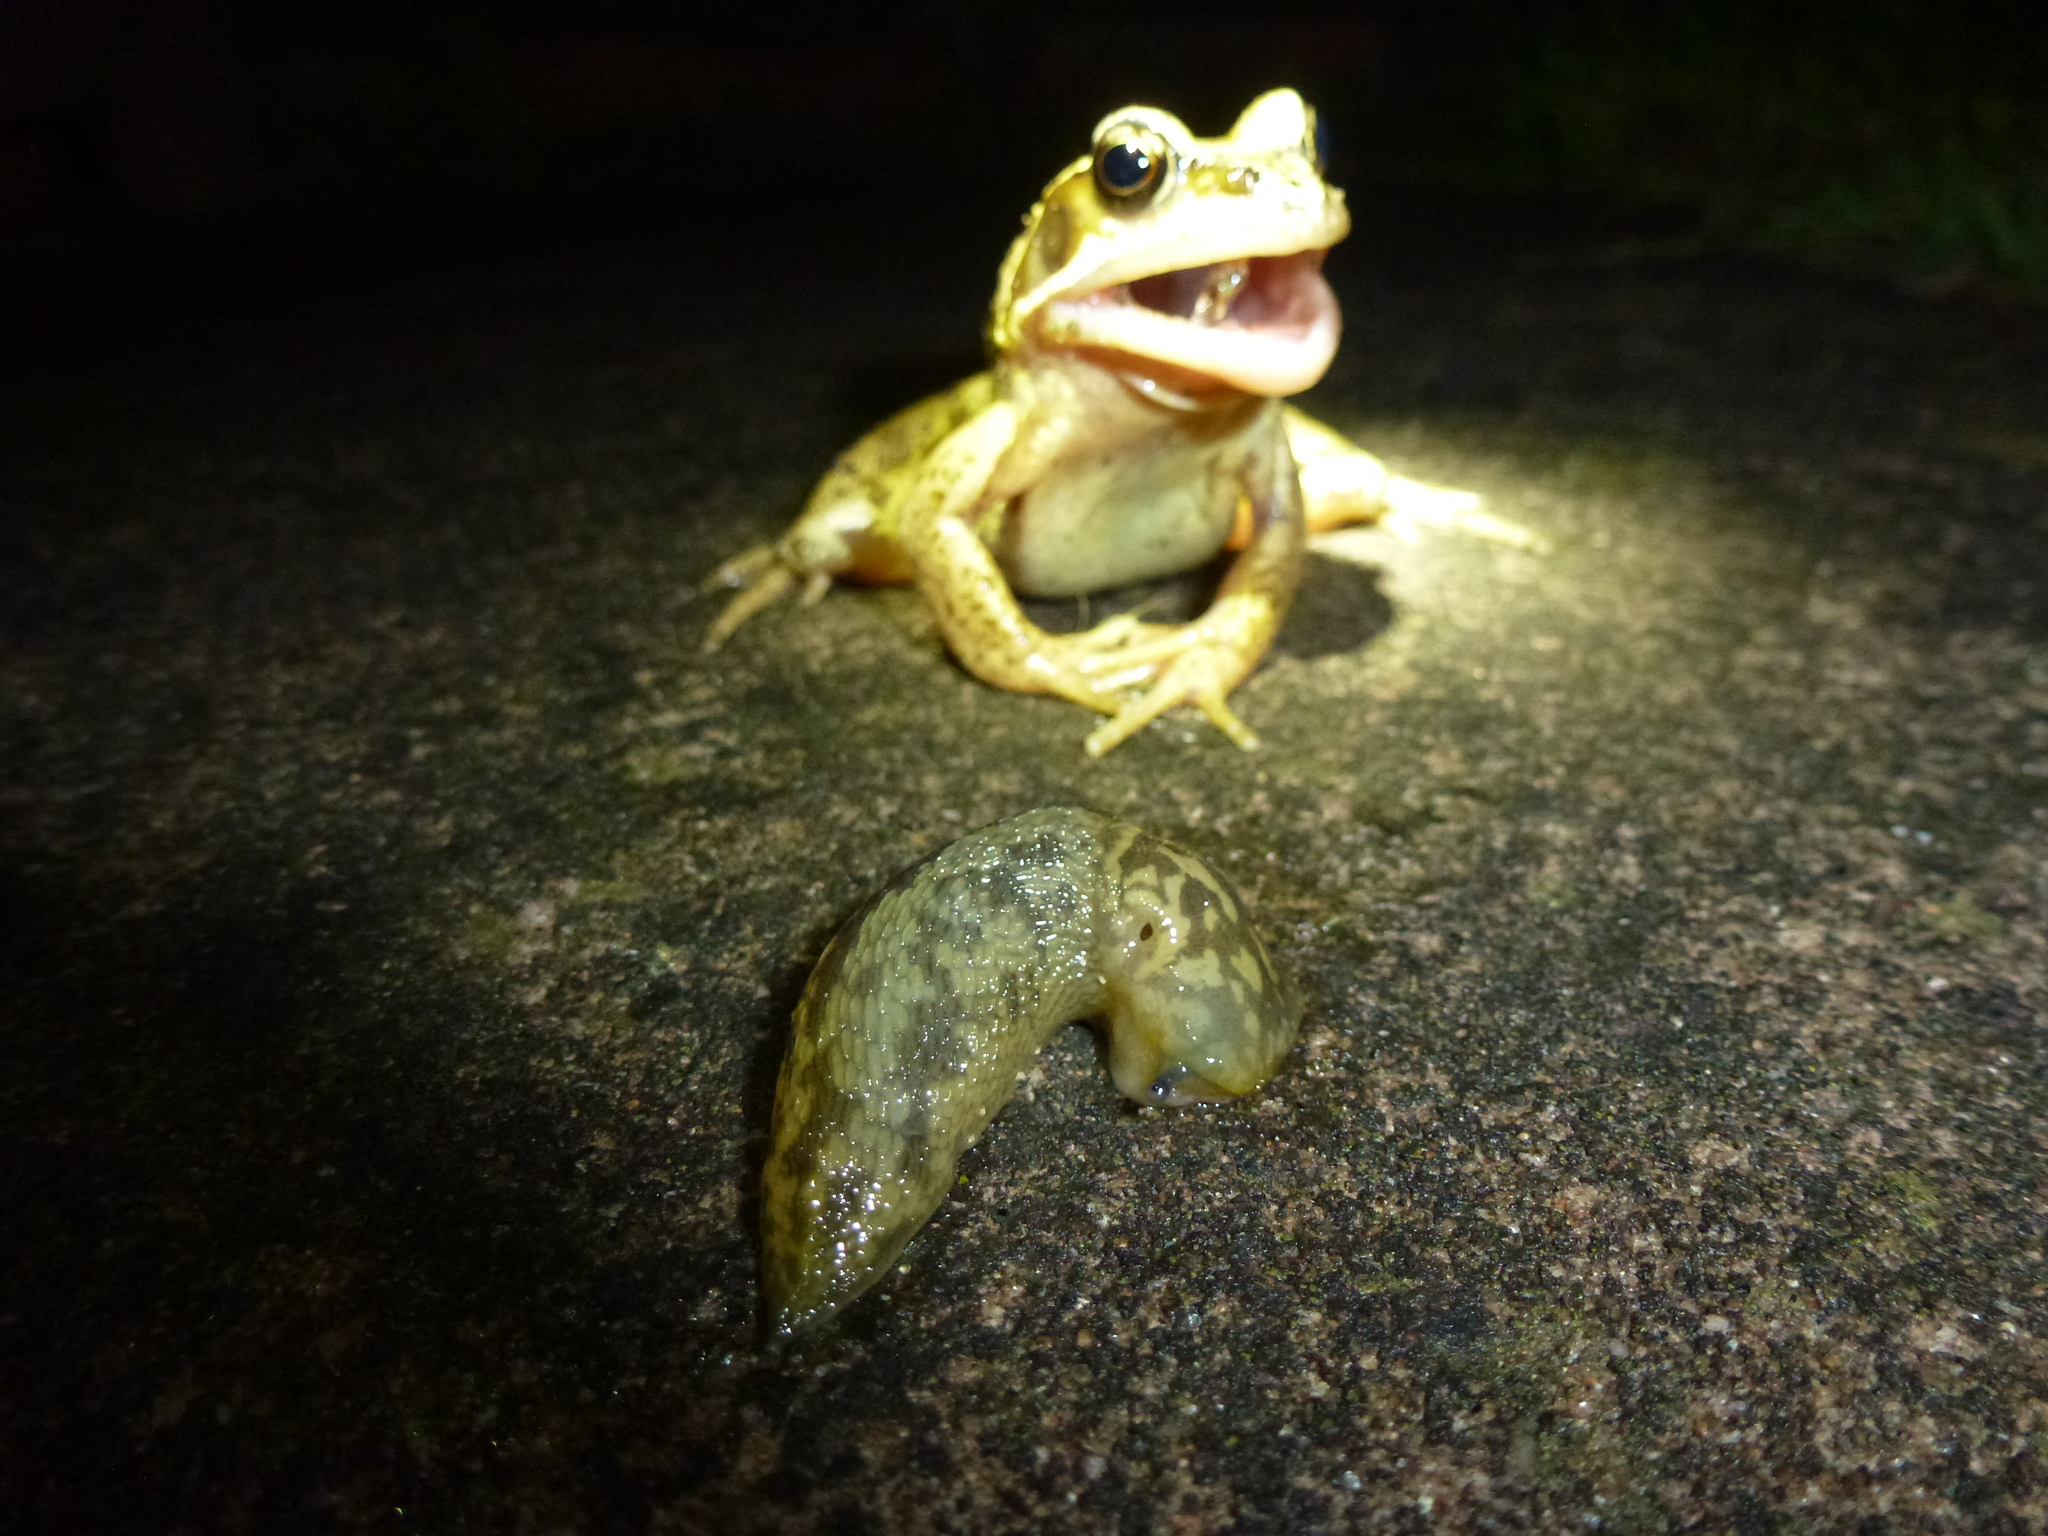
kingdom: Animalia
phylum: Mollusca
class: Gastropoda
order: Stylommatophora
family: Limacidae
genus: Limacus
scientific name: Limacus maculatus
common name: Irish yellow slug
